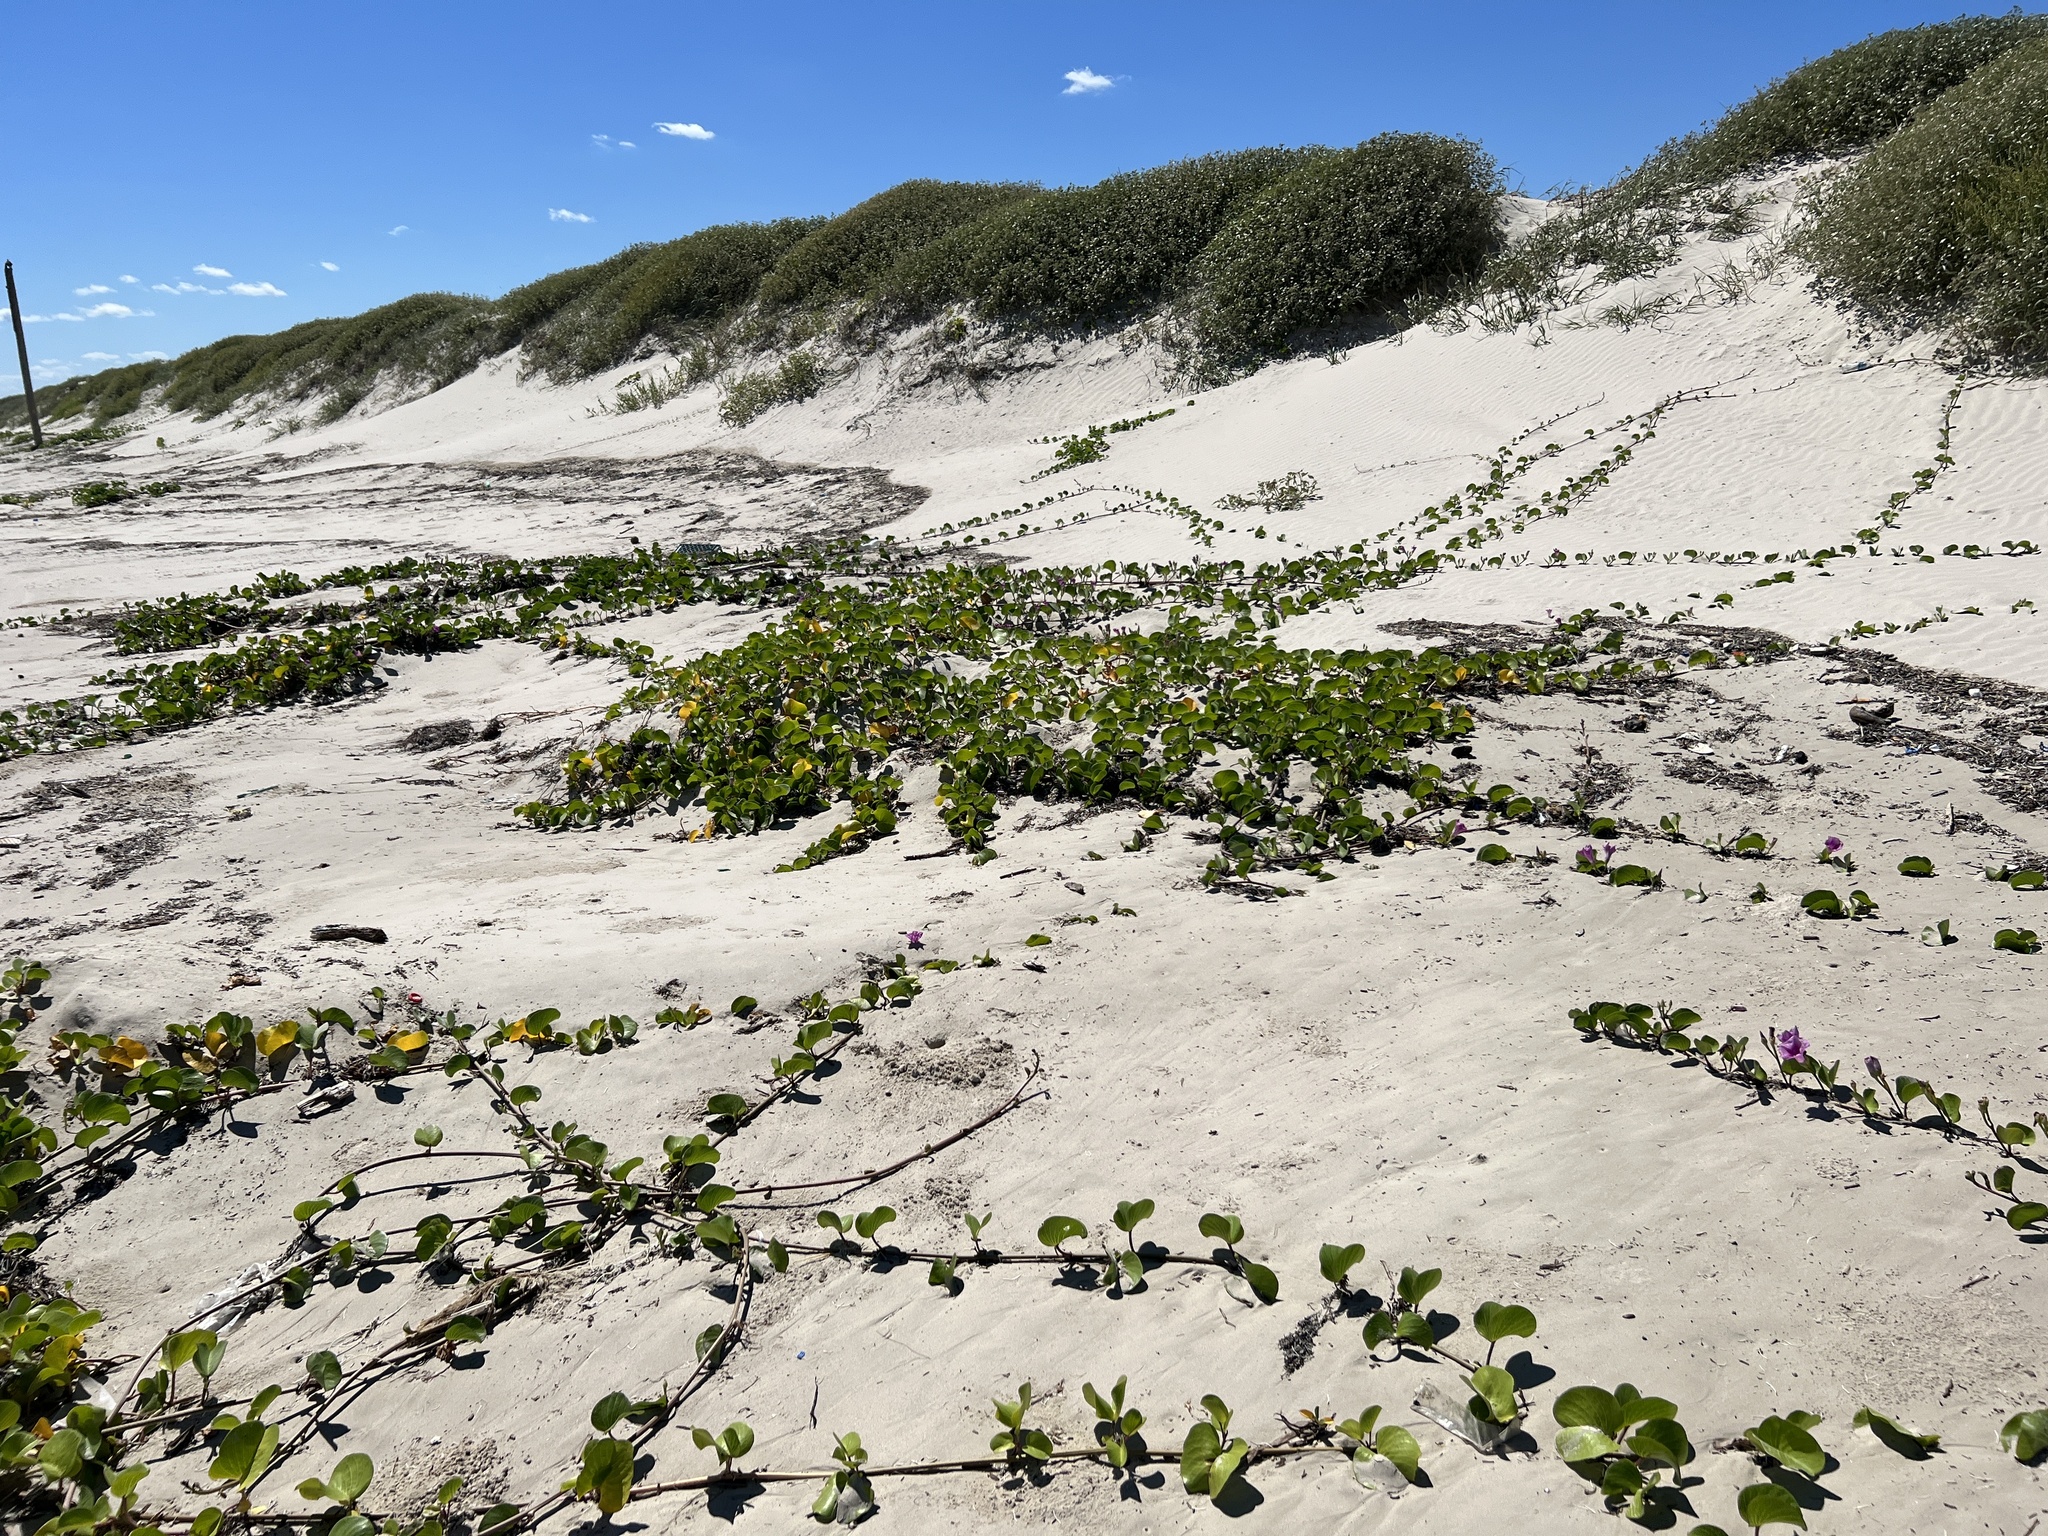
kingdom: Plantae
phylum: Tracheophyta
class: Magnoliopsida
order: Solanales
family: Convolvulaceae
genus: Ipomoea
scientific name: Ipomoea pes-caprae
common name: Beach morning glory
